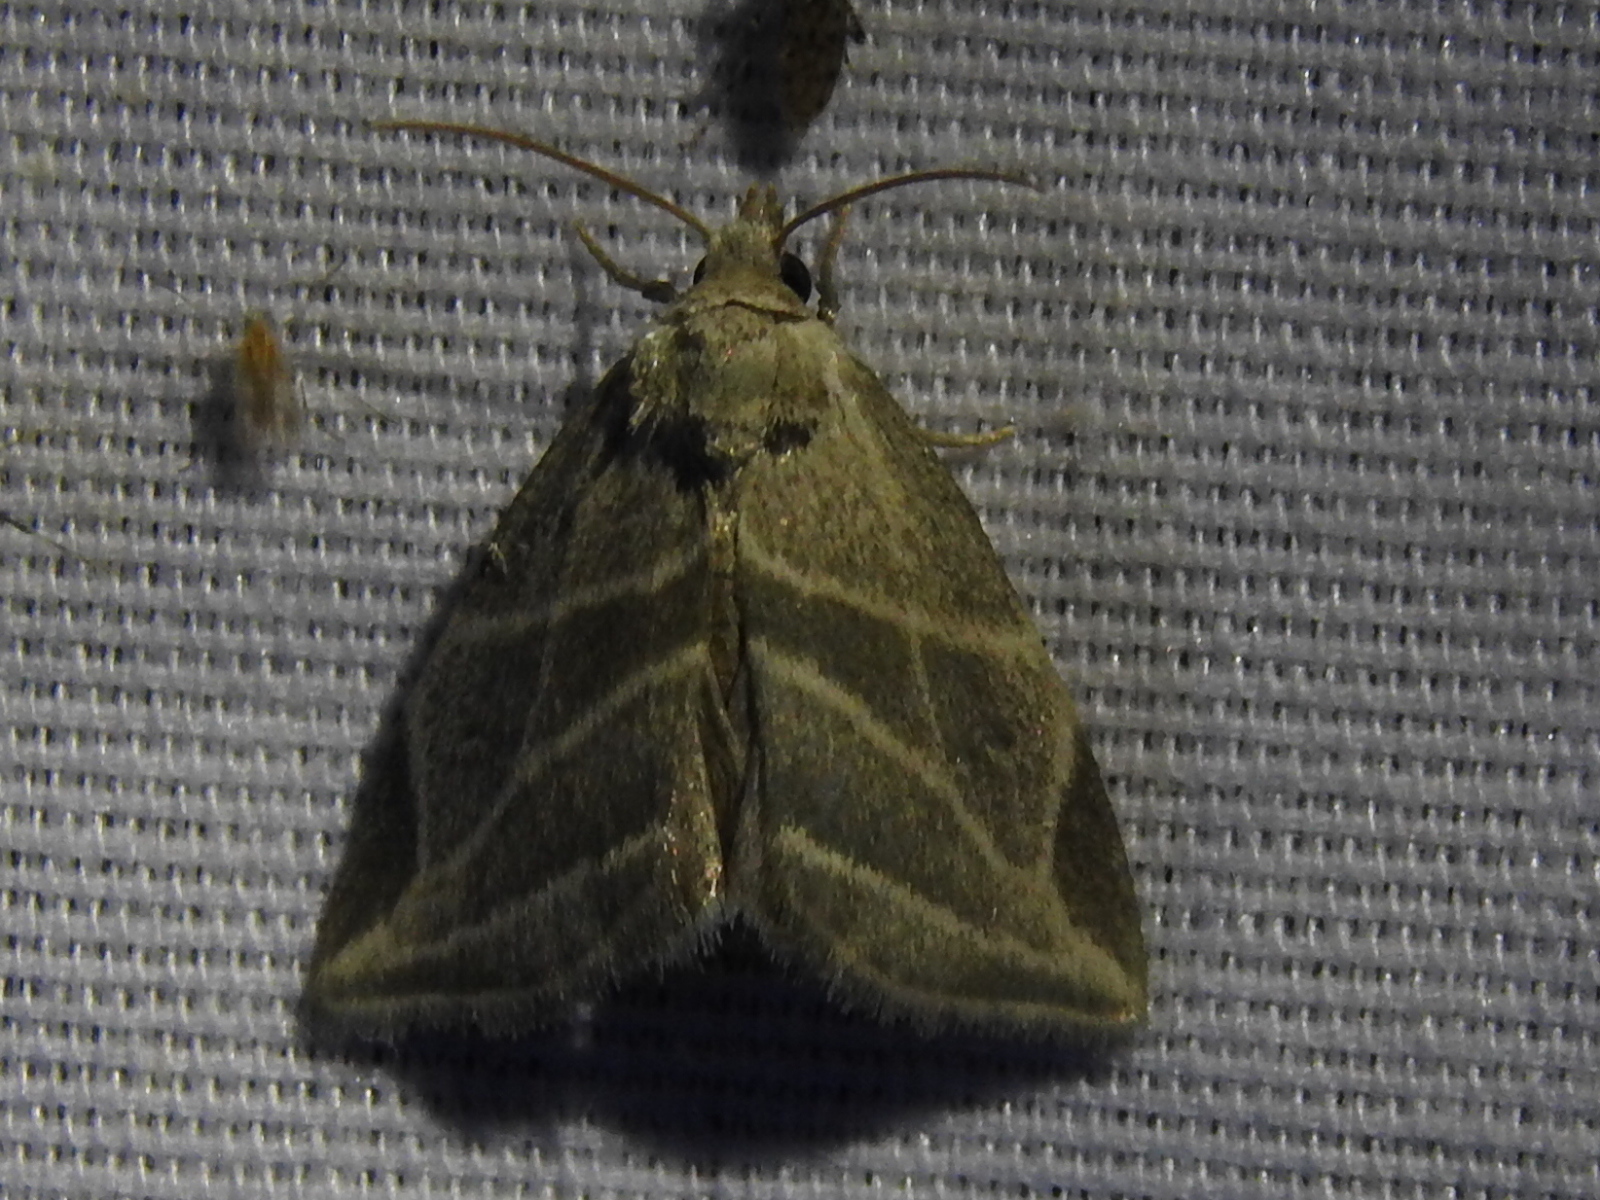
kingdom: Animalia
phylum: Arthropoda
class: Insecta
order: Lepidoptera
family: Noctuidae
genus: Plagiomimicus
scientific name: Plagiomimicus tepperi
